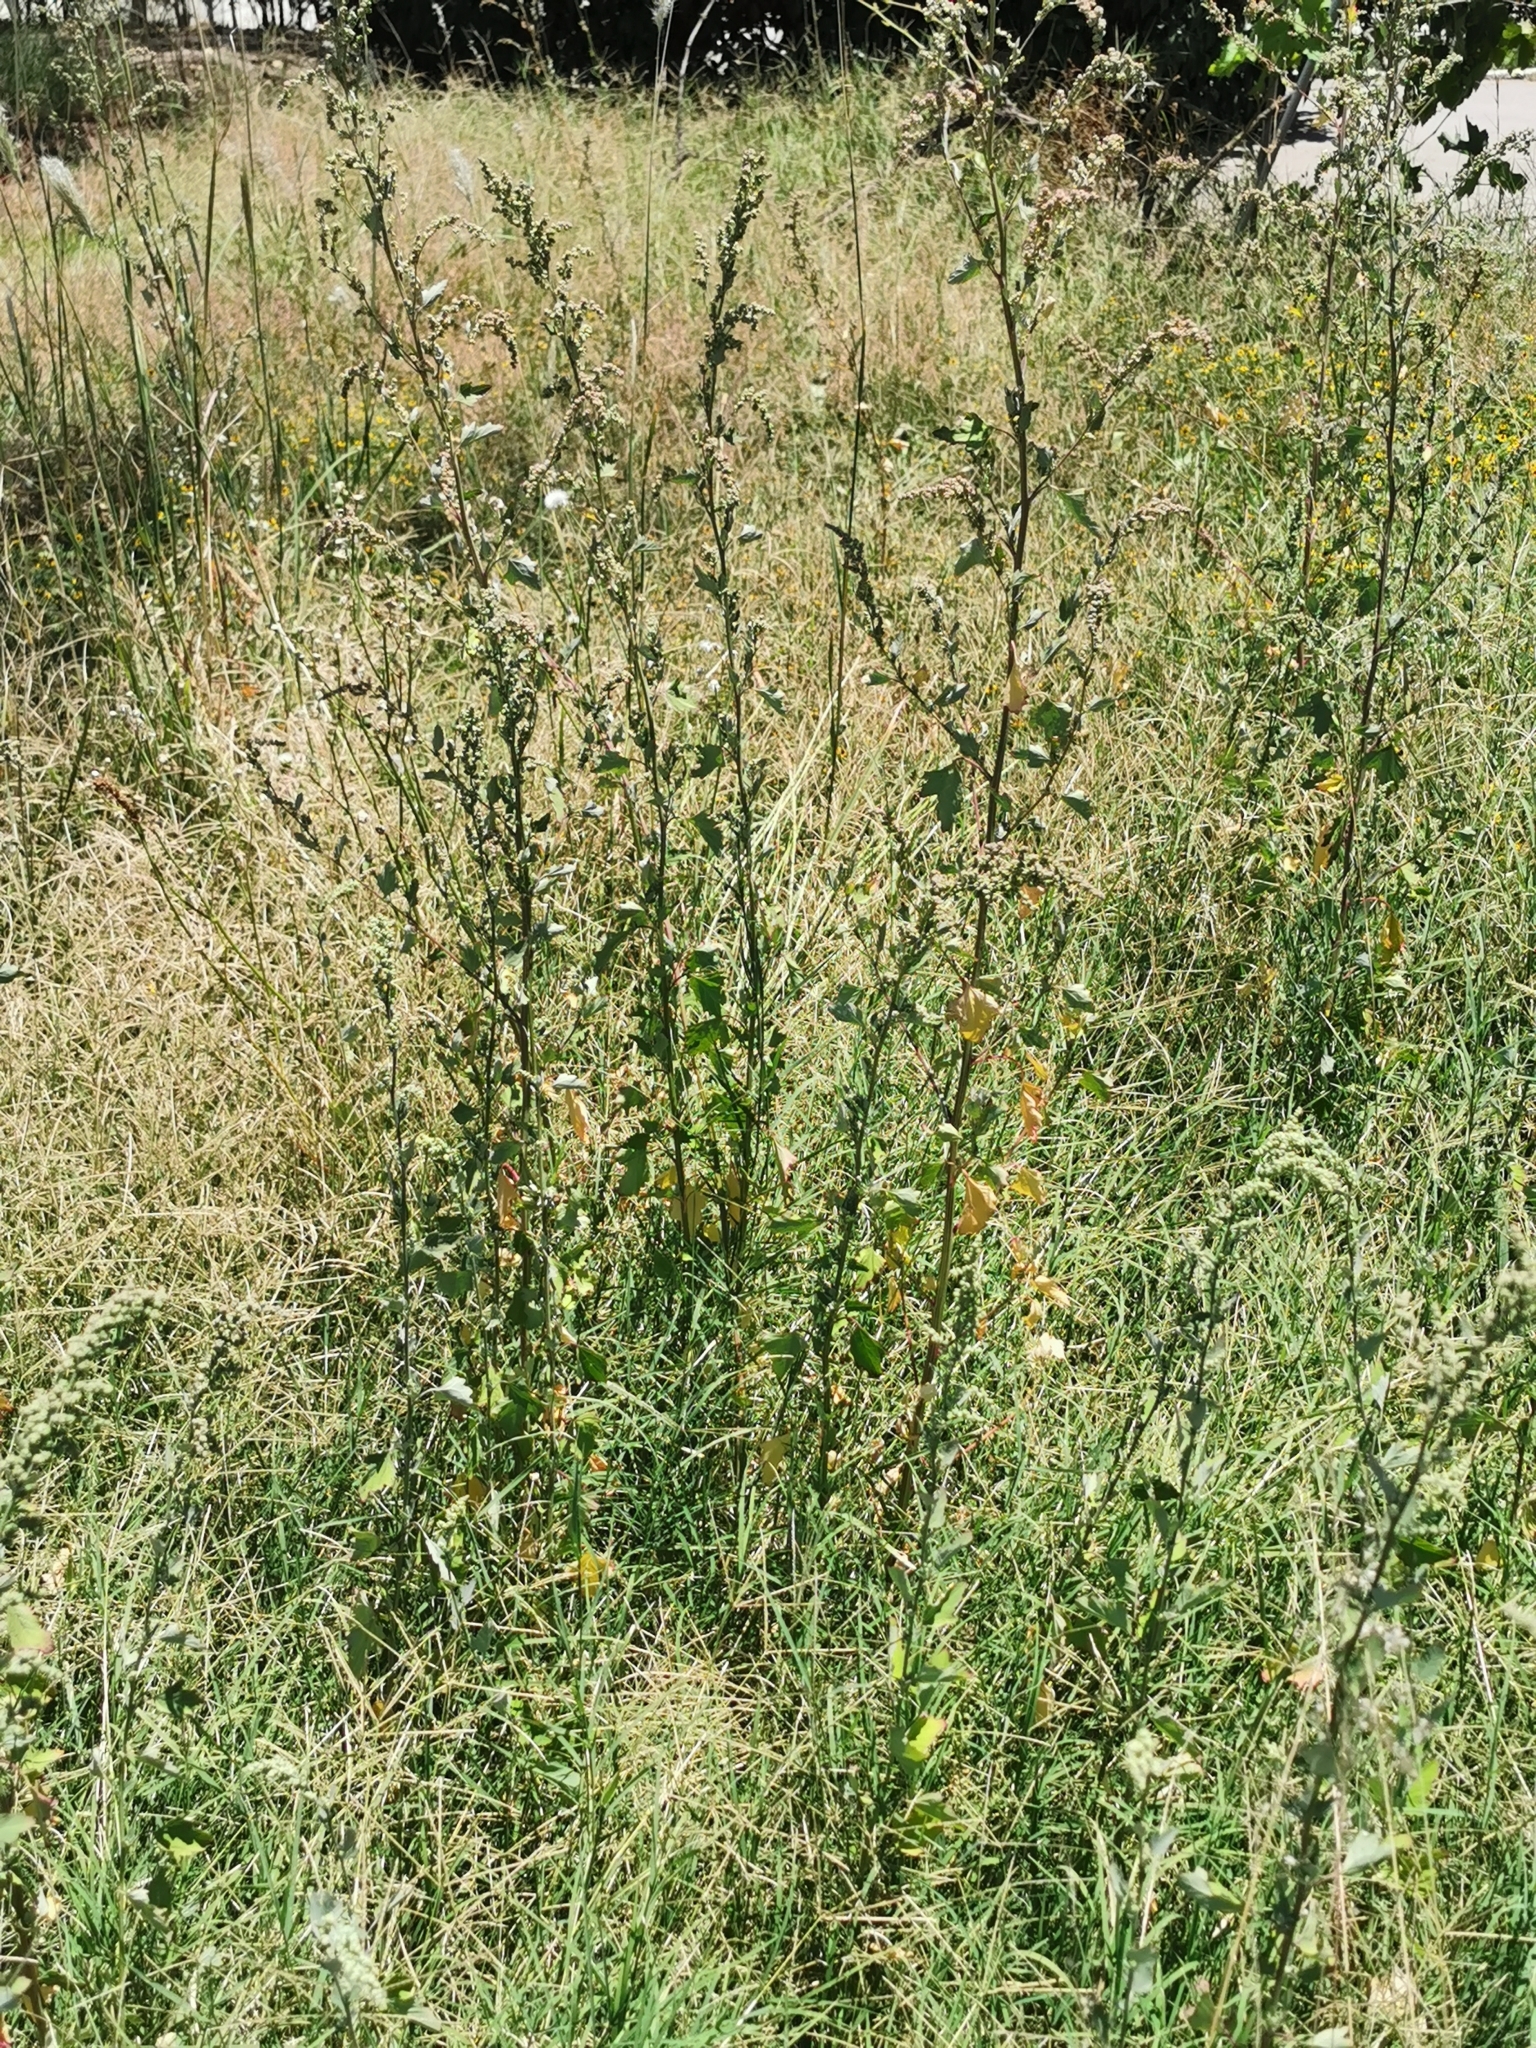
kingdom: Plantae
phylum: Tracheophyta
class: Magnoliopsida
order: Caryophyllales
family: Amaranthaceae
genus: Chenopodium
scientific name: Chenopodium album
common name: Fat-hen
